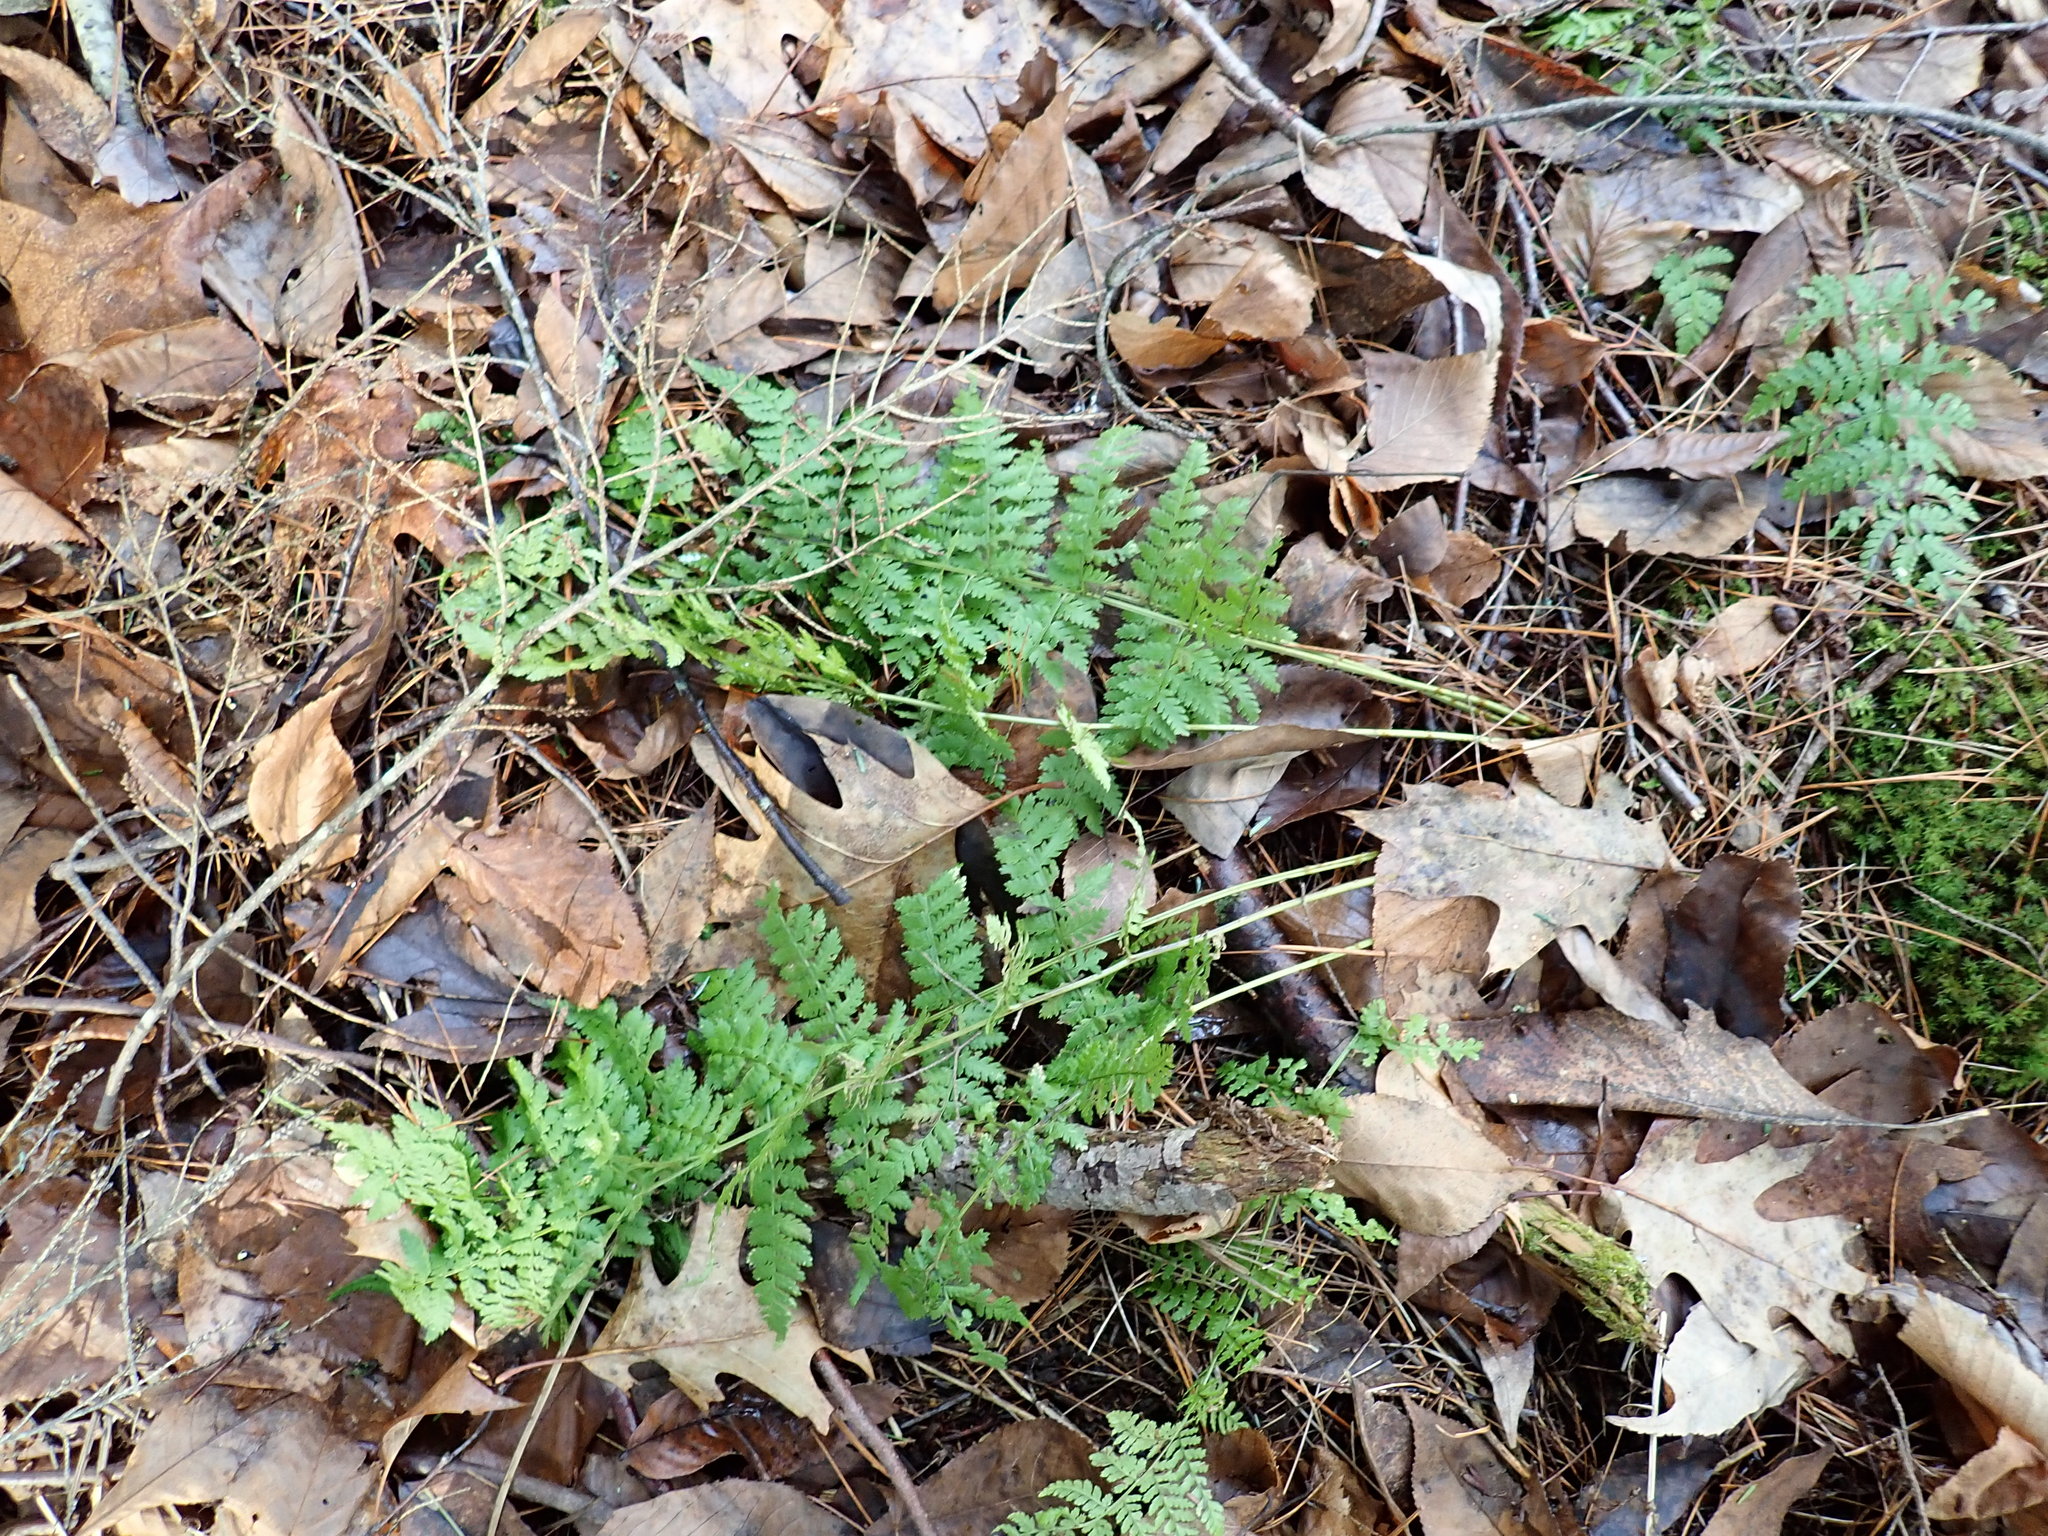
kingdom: Plantae
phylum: Tracheophyta
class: Polypodiopsida
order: Polypodiales
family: Dryopteridaceae
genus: Dryopteris
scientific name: Dryopteris intermedia
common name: Evergreen wood fern
